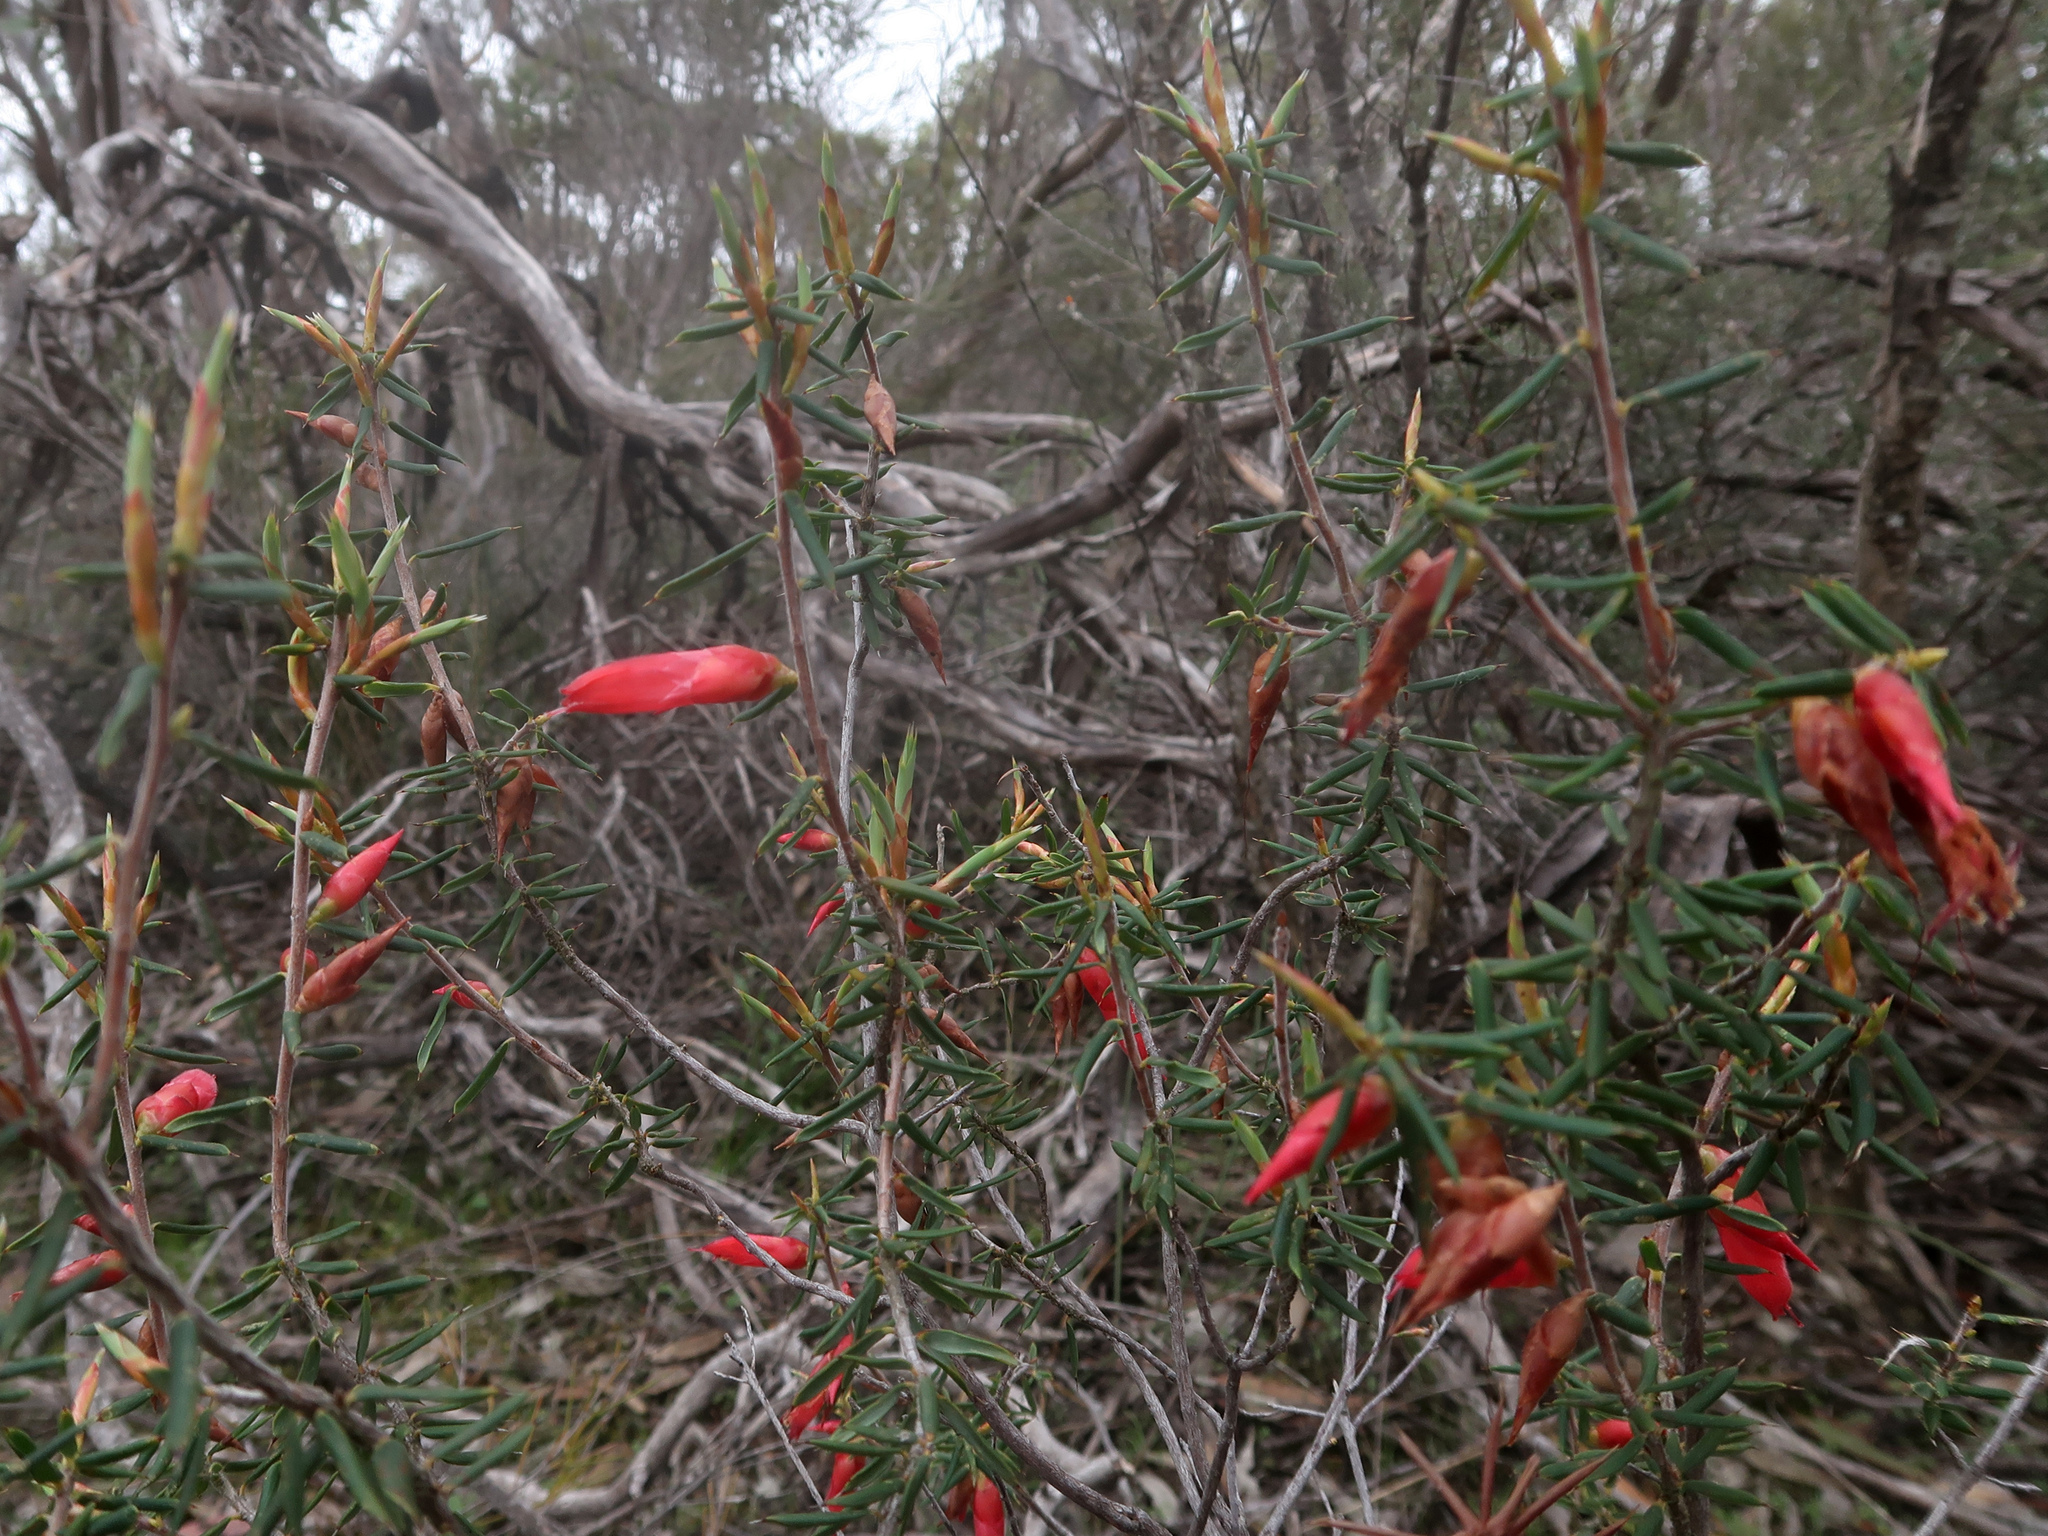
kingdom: Plantae
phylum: Tracheophyta
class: Magnoliopsida
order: Ericales
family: Ericaceae
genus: Stenanthera
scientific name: Stenanthera conostephioides
